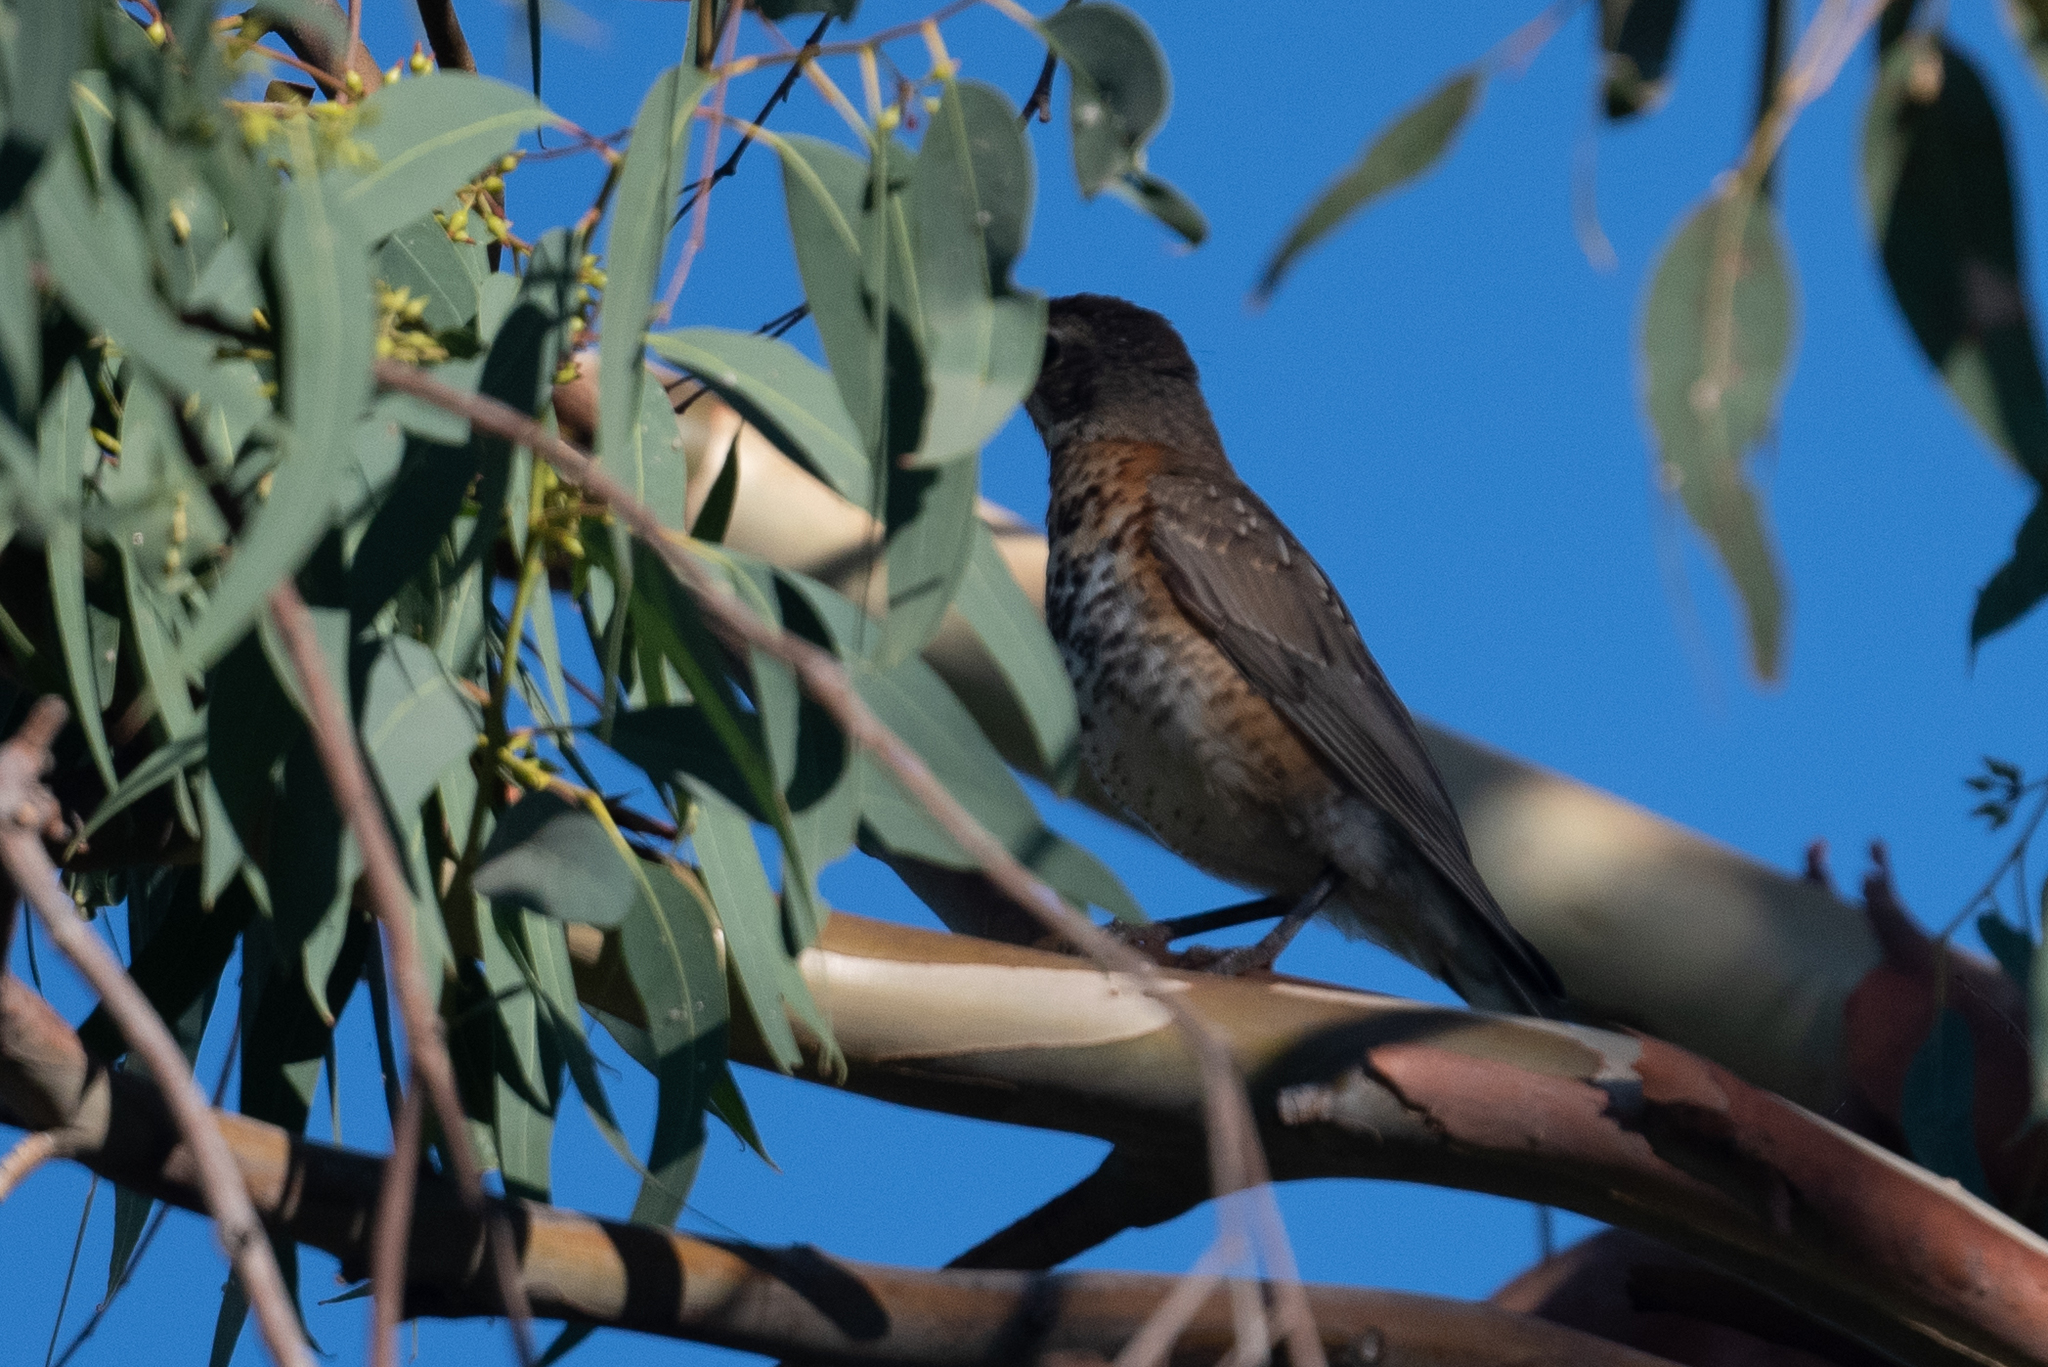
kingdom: Animalia
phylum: Chordata
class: Aves
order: Passeriformes
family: Turdidae
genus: Turdus
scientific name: Turdus migratorius
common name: American robin
